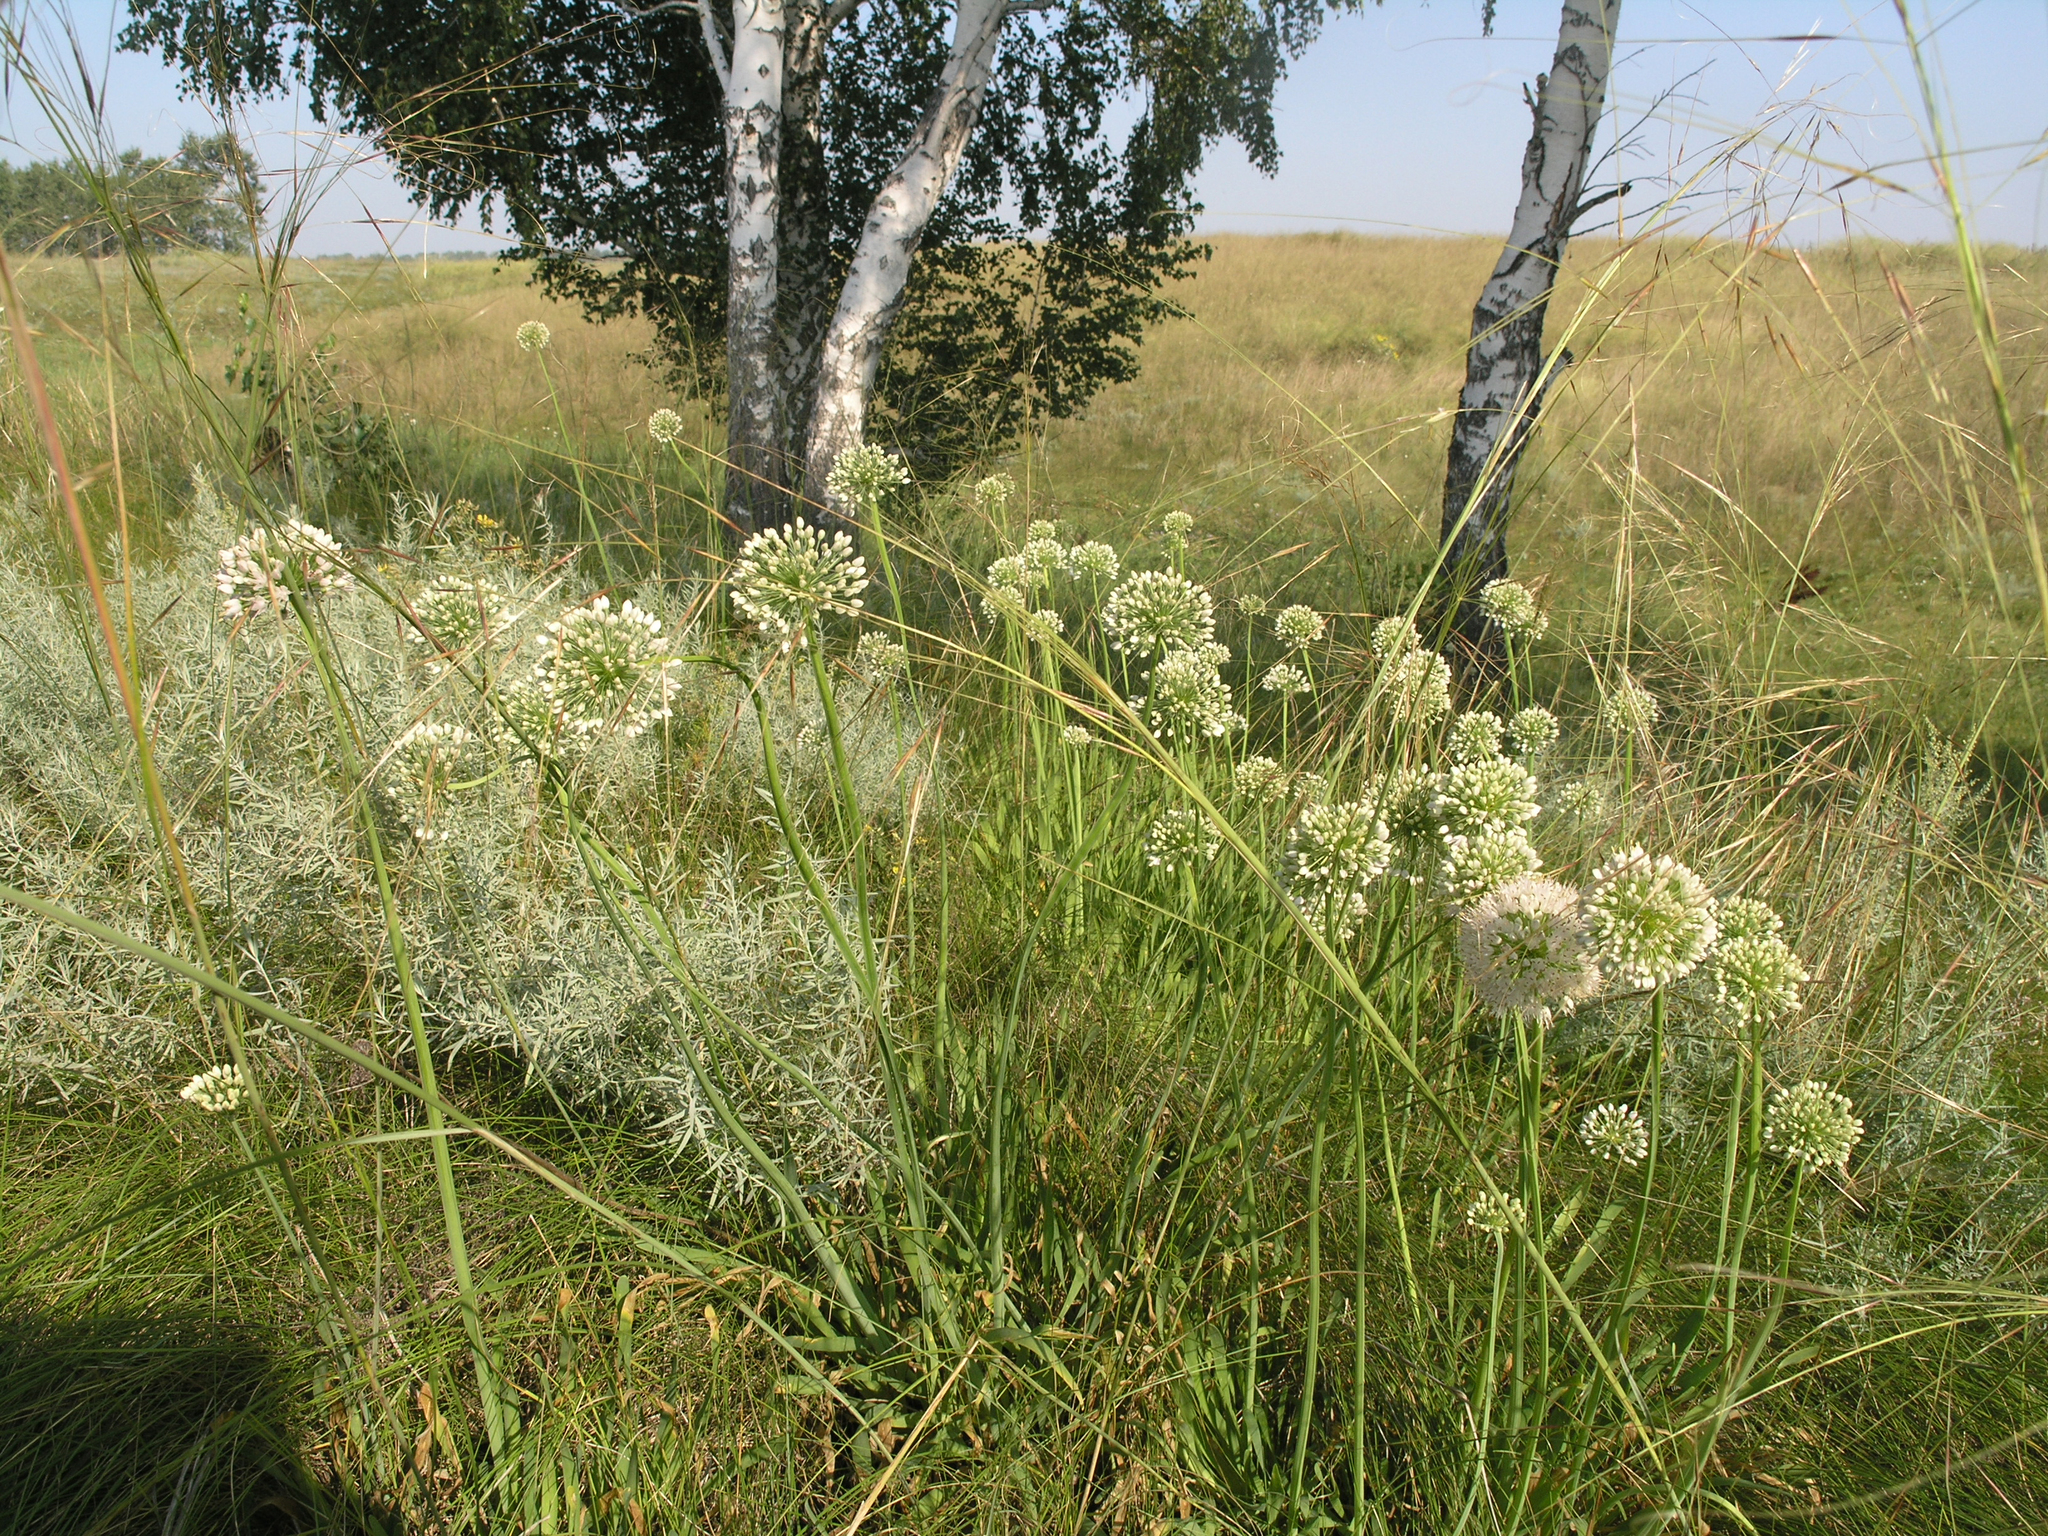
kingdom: Plantae
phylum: Tracheophyta
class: Liliopsida
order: Asparagales
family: Amaryllidaceae
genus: Allium
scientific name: Allium nutans
